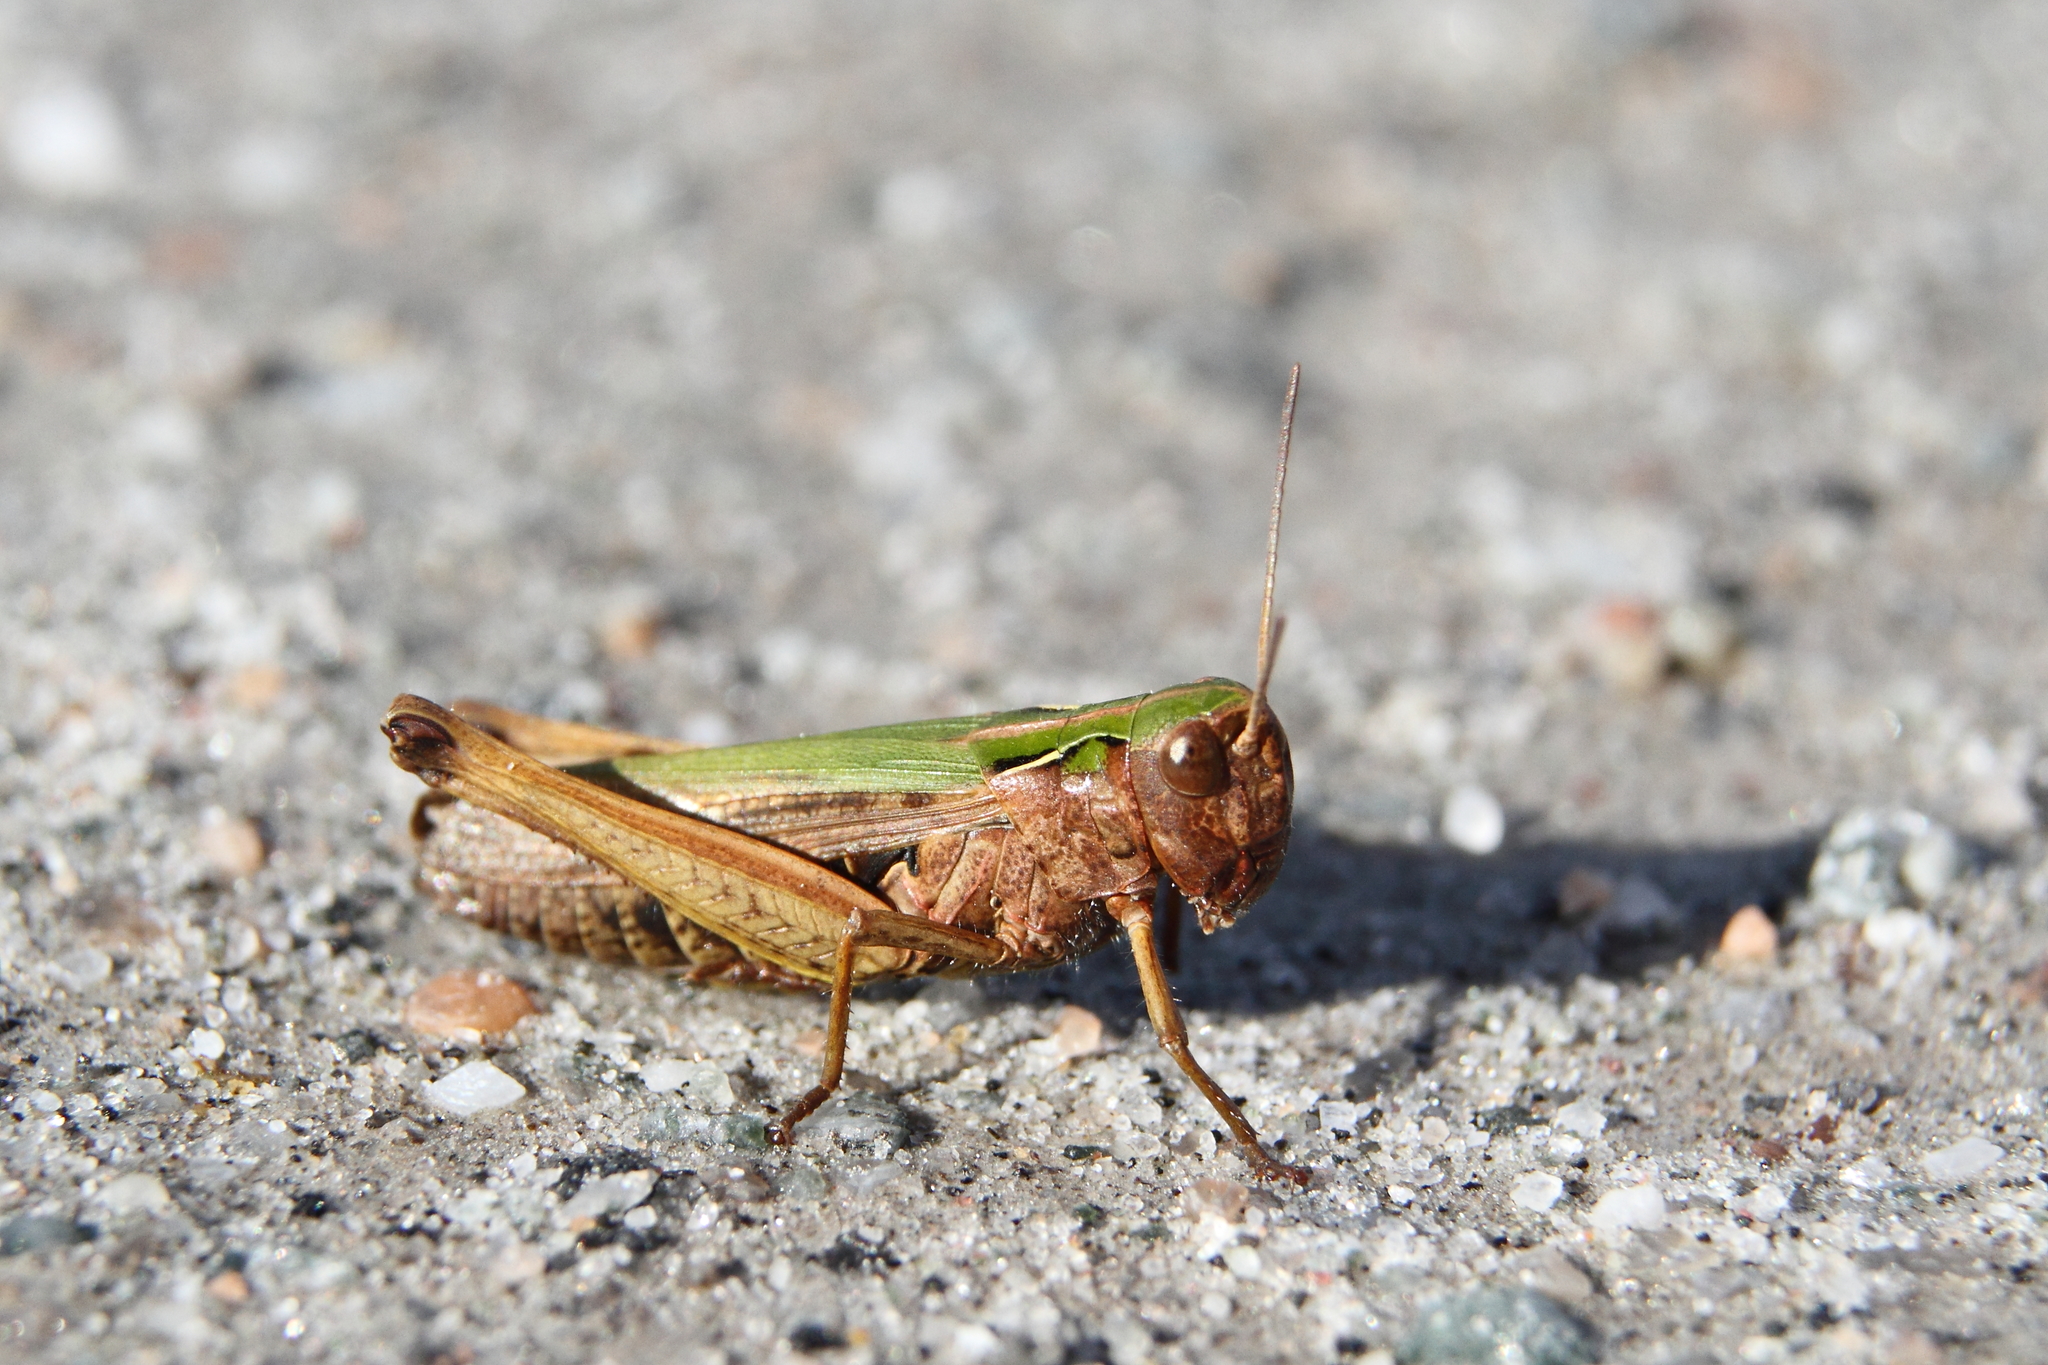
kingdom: Animalia
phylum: Arthropoda
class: Insecta
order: Orthoptera
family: Acrididae
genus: Omocestus
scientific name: Omocestus viridulus
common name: Common green grasshopper
